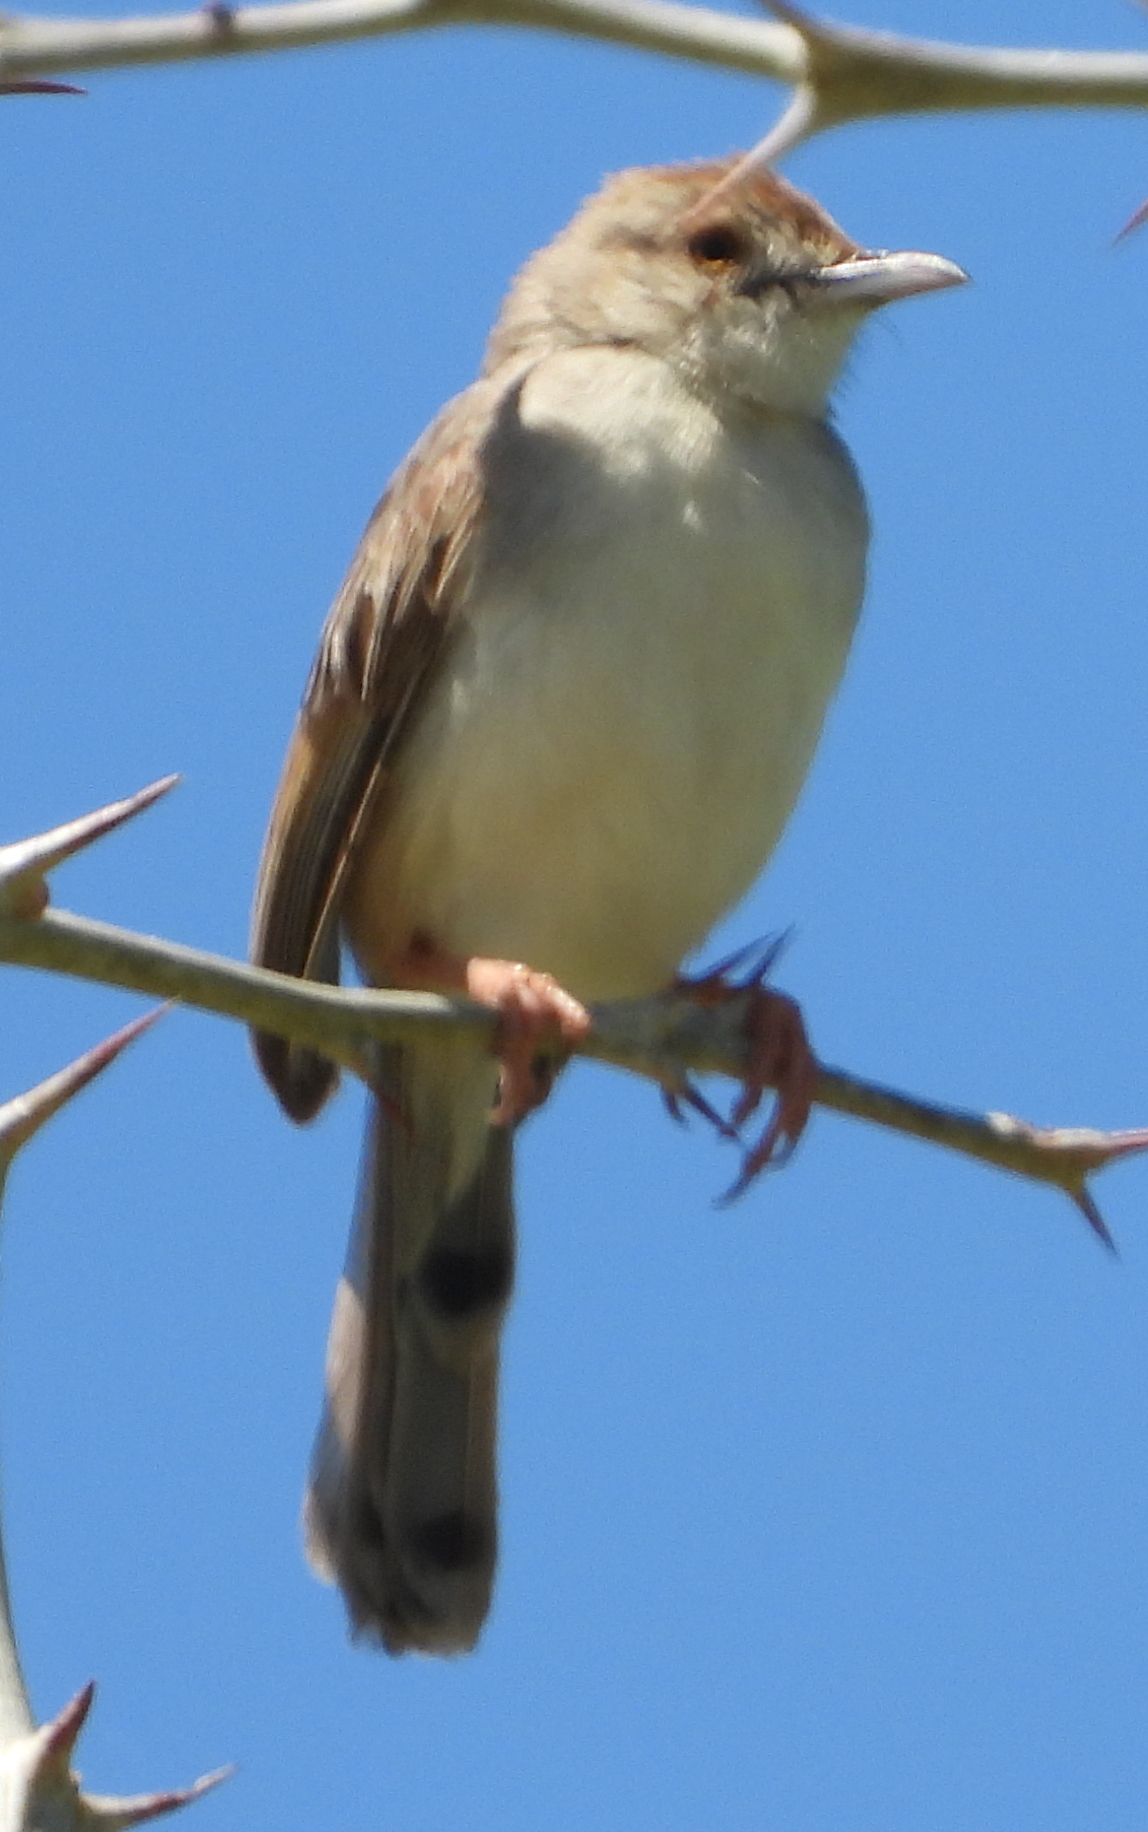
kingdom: Animalia
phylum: Chordata
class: Aves
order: Passeriformes
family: Cisticolidae
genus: Cisticola
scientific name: Cisticola chiniana
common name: Rattling cisticola
